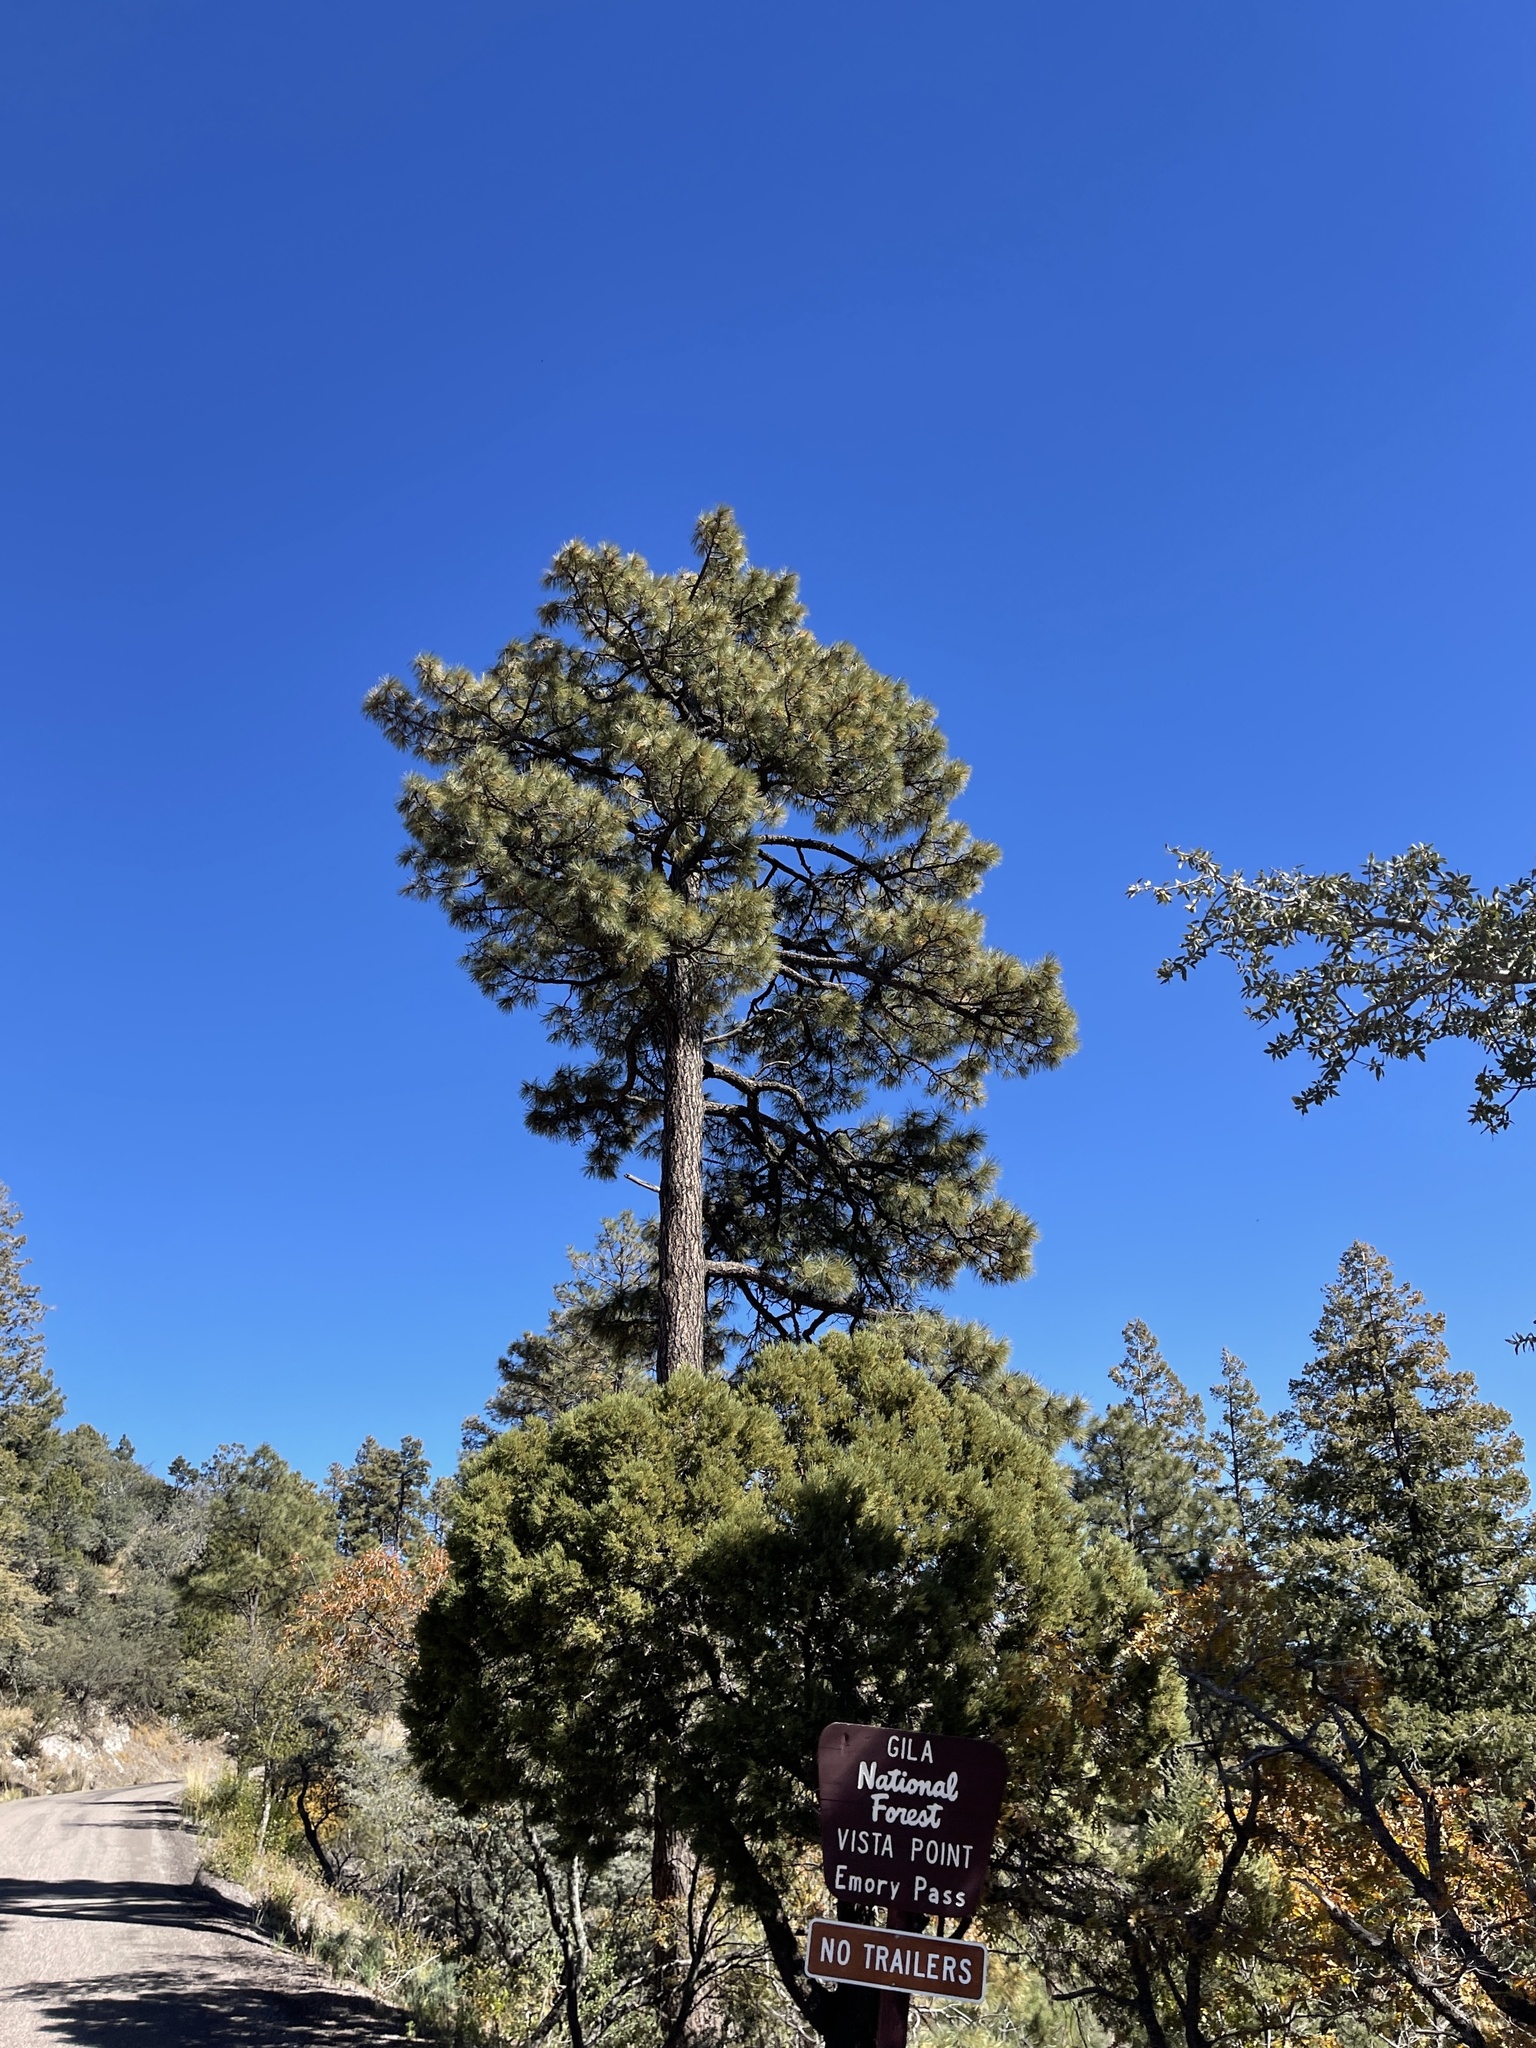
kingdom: Plantae
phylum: Tracheophyta
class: Pinopsida
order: Pinales
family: Pinaceae
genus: Pinus
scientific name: Pinus ponderosa
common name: Western yellow-pine
